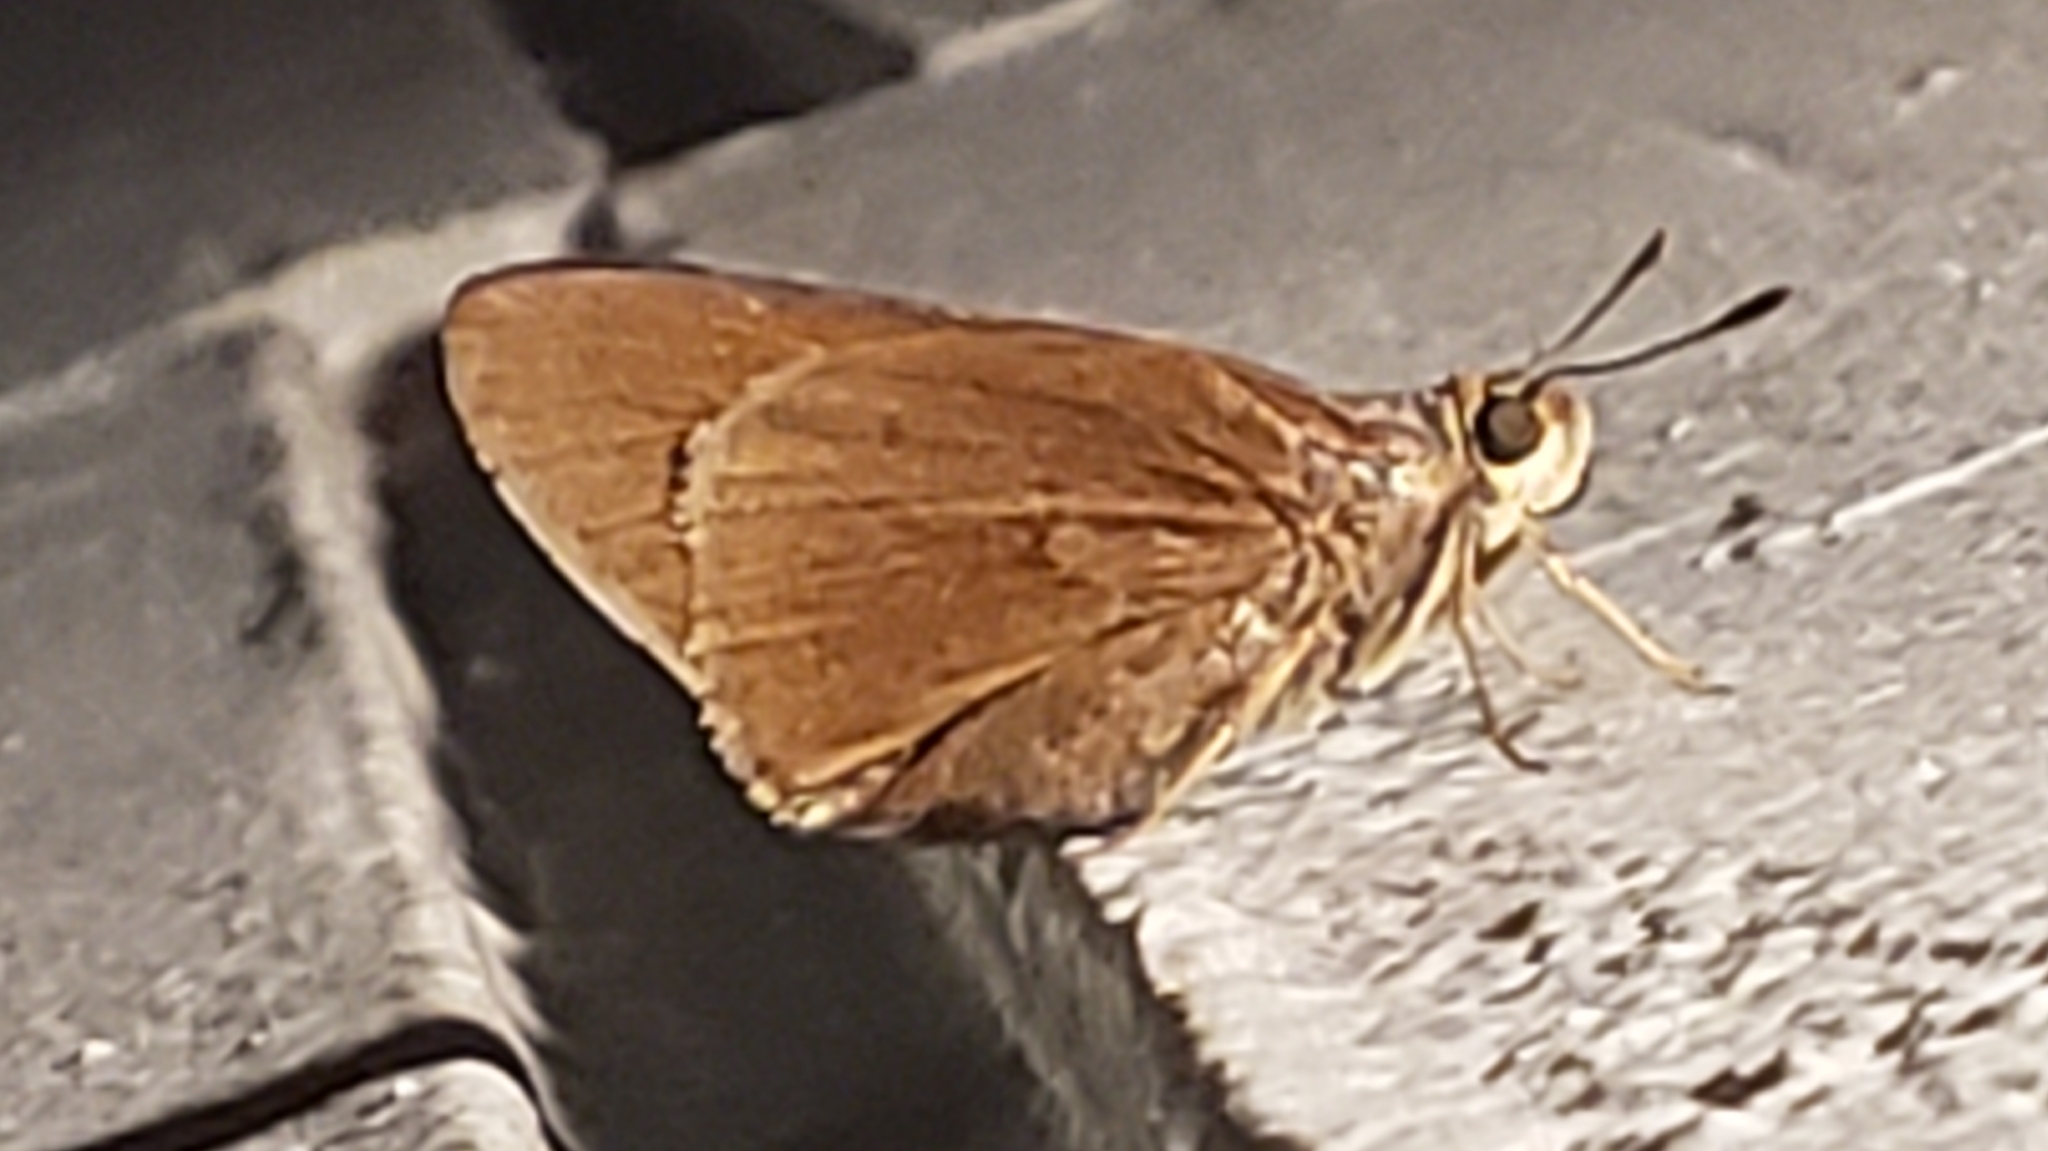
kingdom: Animalia
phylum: Arthropoda
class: Insecta
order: Lepidoptera
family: Hesperiidae
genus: Asbolis
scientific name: Asbolis capucinus
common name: Monk skipper
